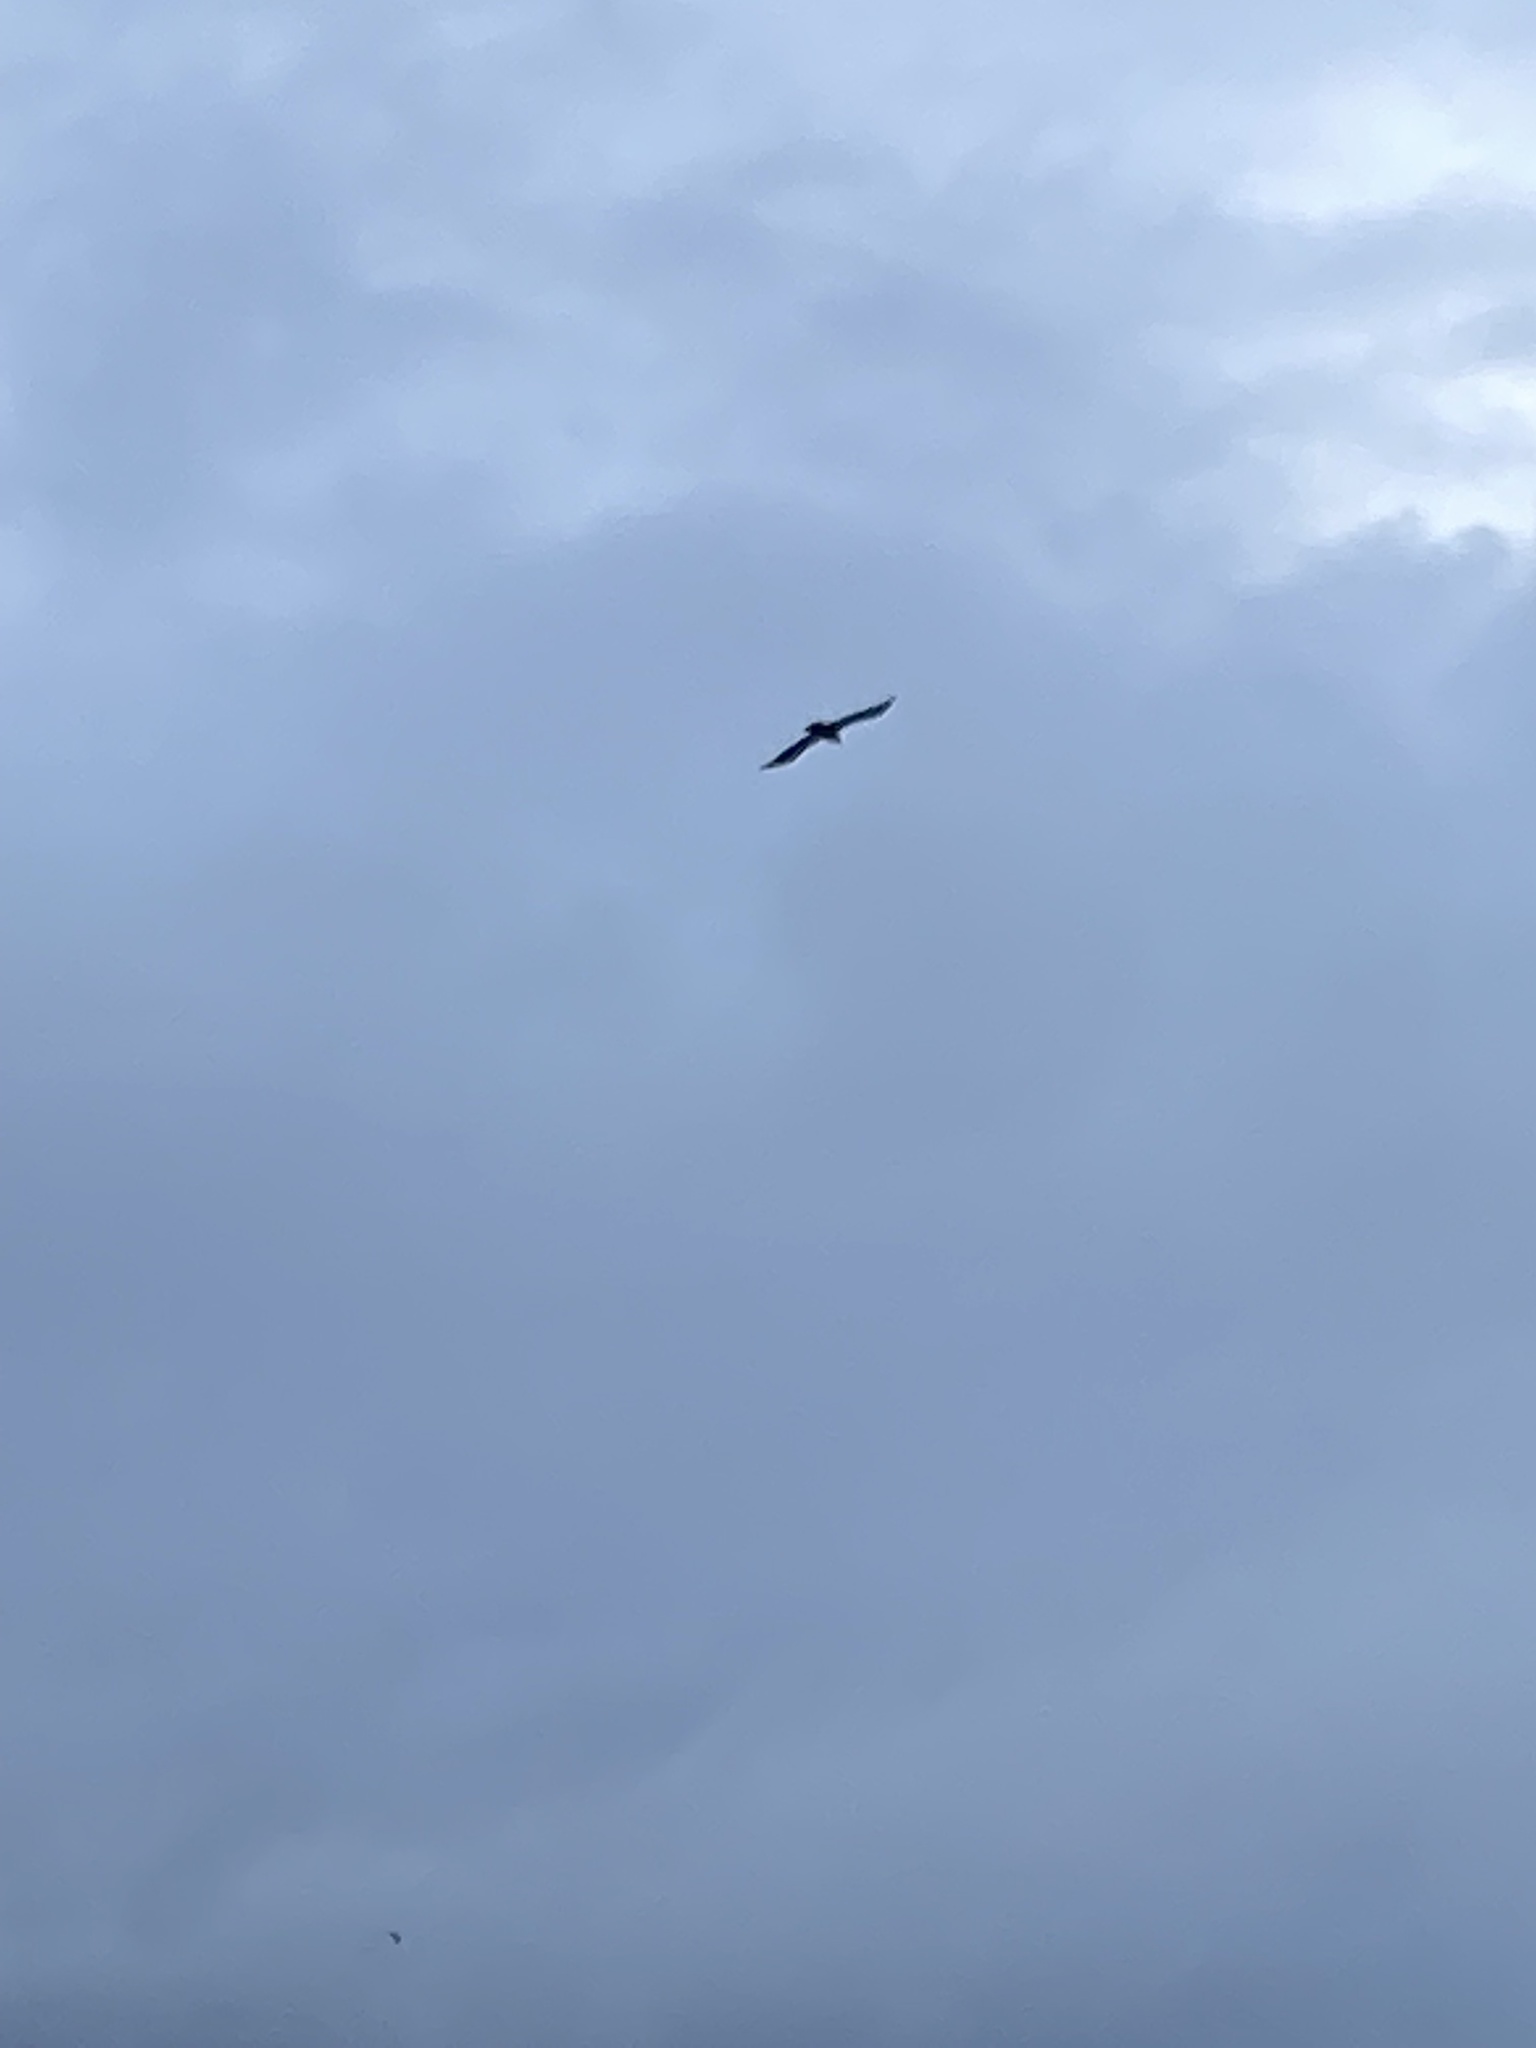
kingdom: Animalia
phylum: Chordata
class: Aves
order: Passeriformes
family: Corvidae
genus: Corvus
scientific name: Corvus corax
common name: Common raven
